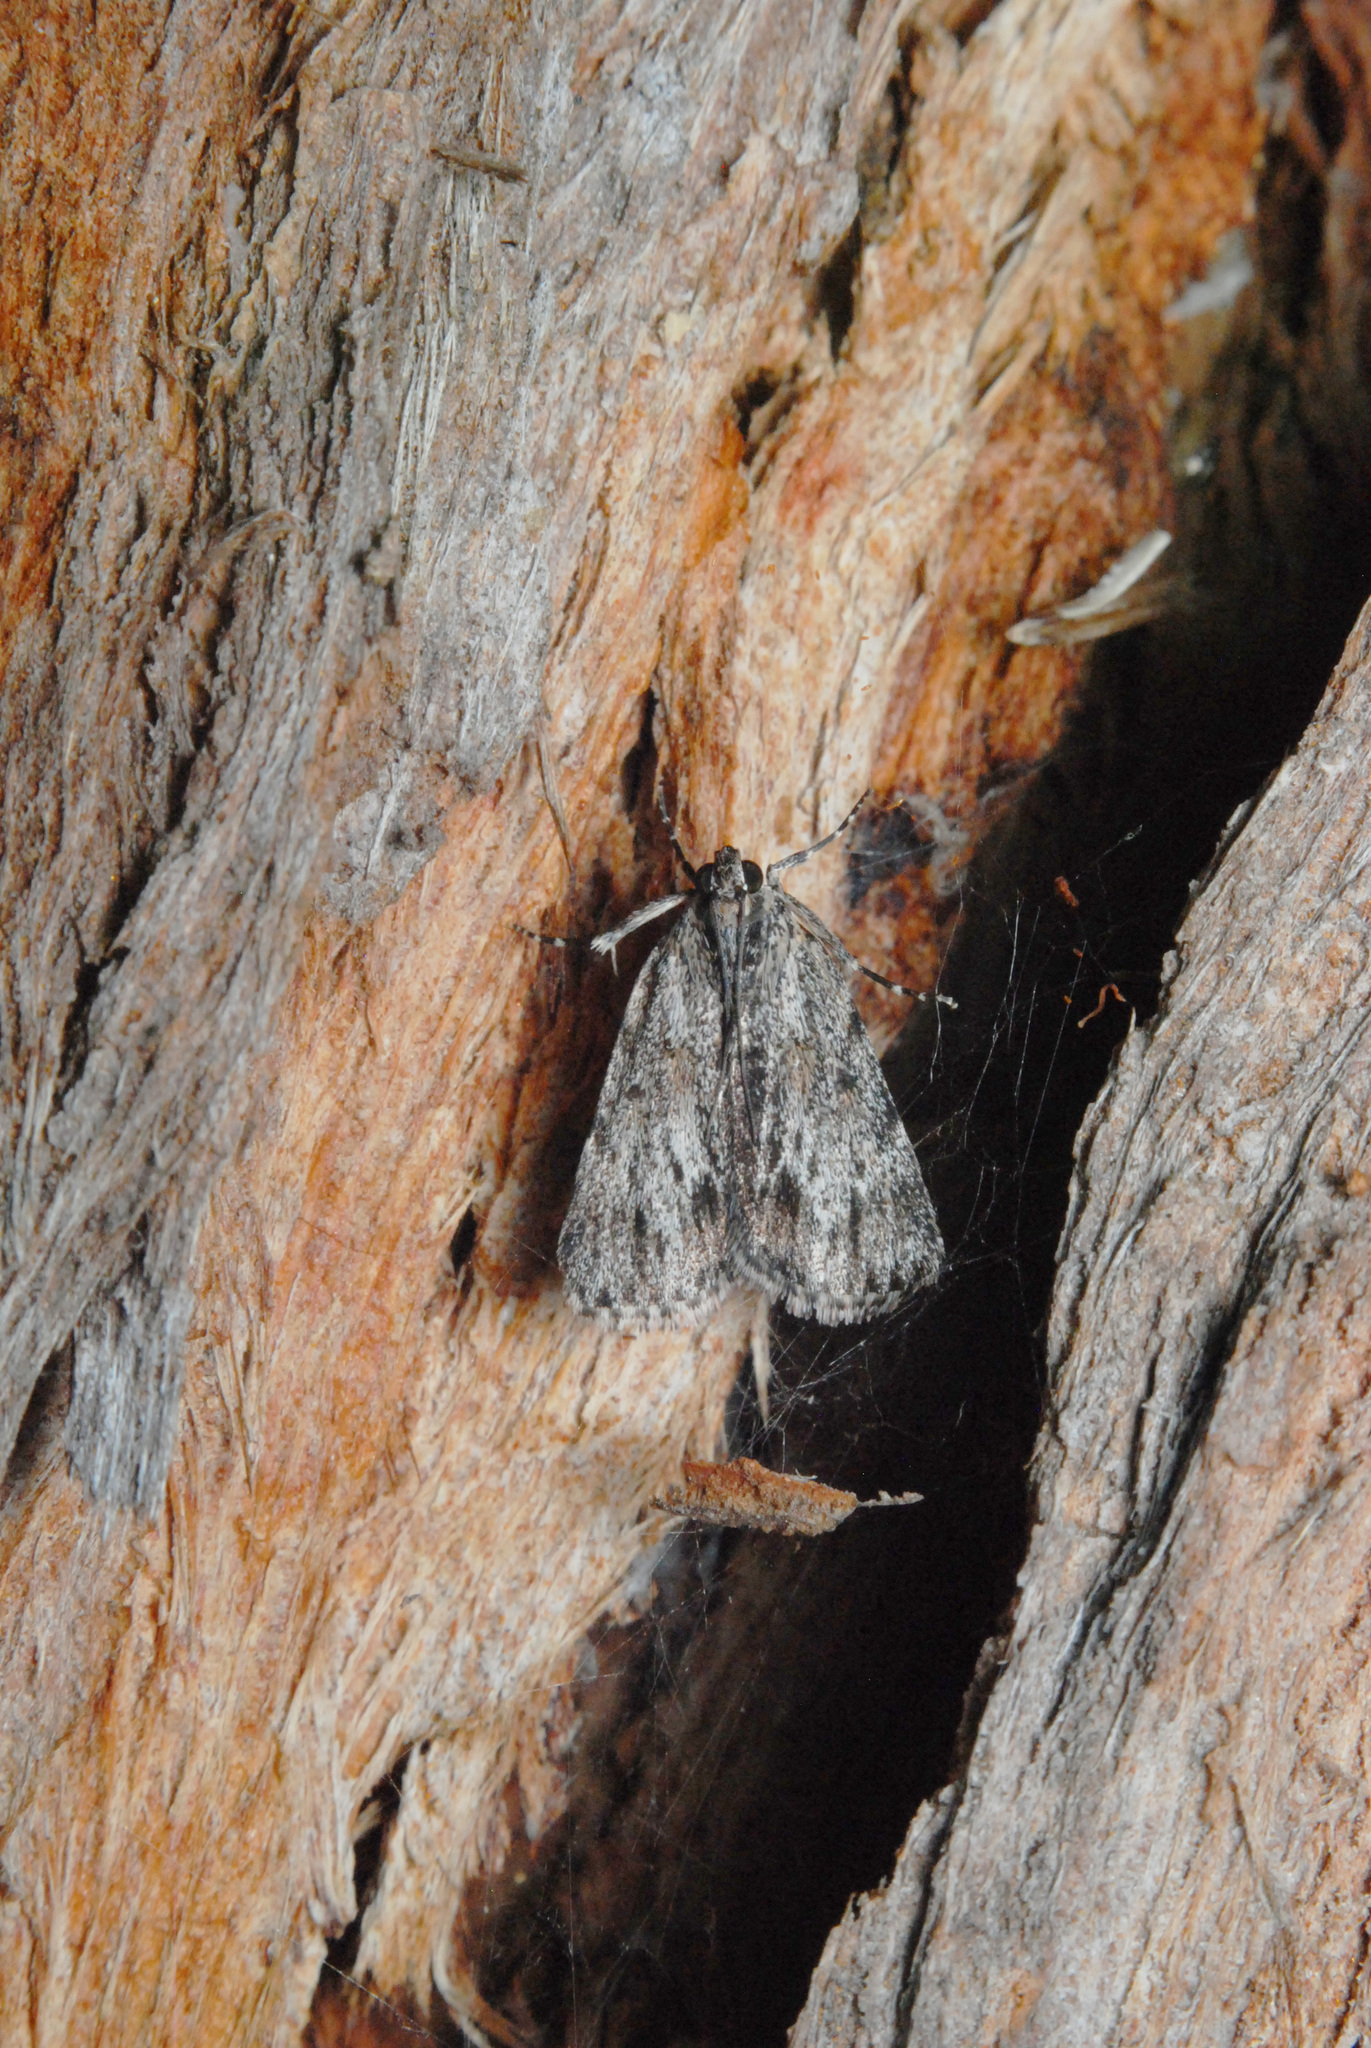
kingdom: Animalia
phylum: Arthropoda
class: Insecta
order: Lepidoptera
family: Pyralidae
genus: Spectrotrota
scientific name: Spectrotrota fimbrialis
